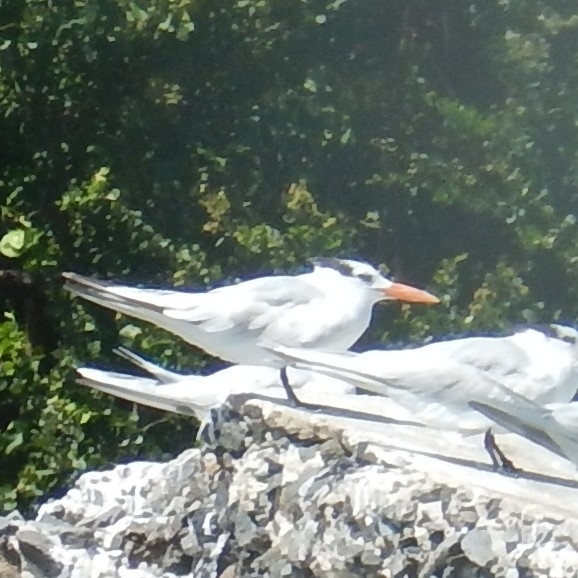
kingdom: Animalia
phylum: Chordata
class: Aves
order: Charadriiformes
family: Laridae
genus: Thalasseus
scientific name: Thalasseus maximus
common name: Royal tern
